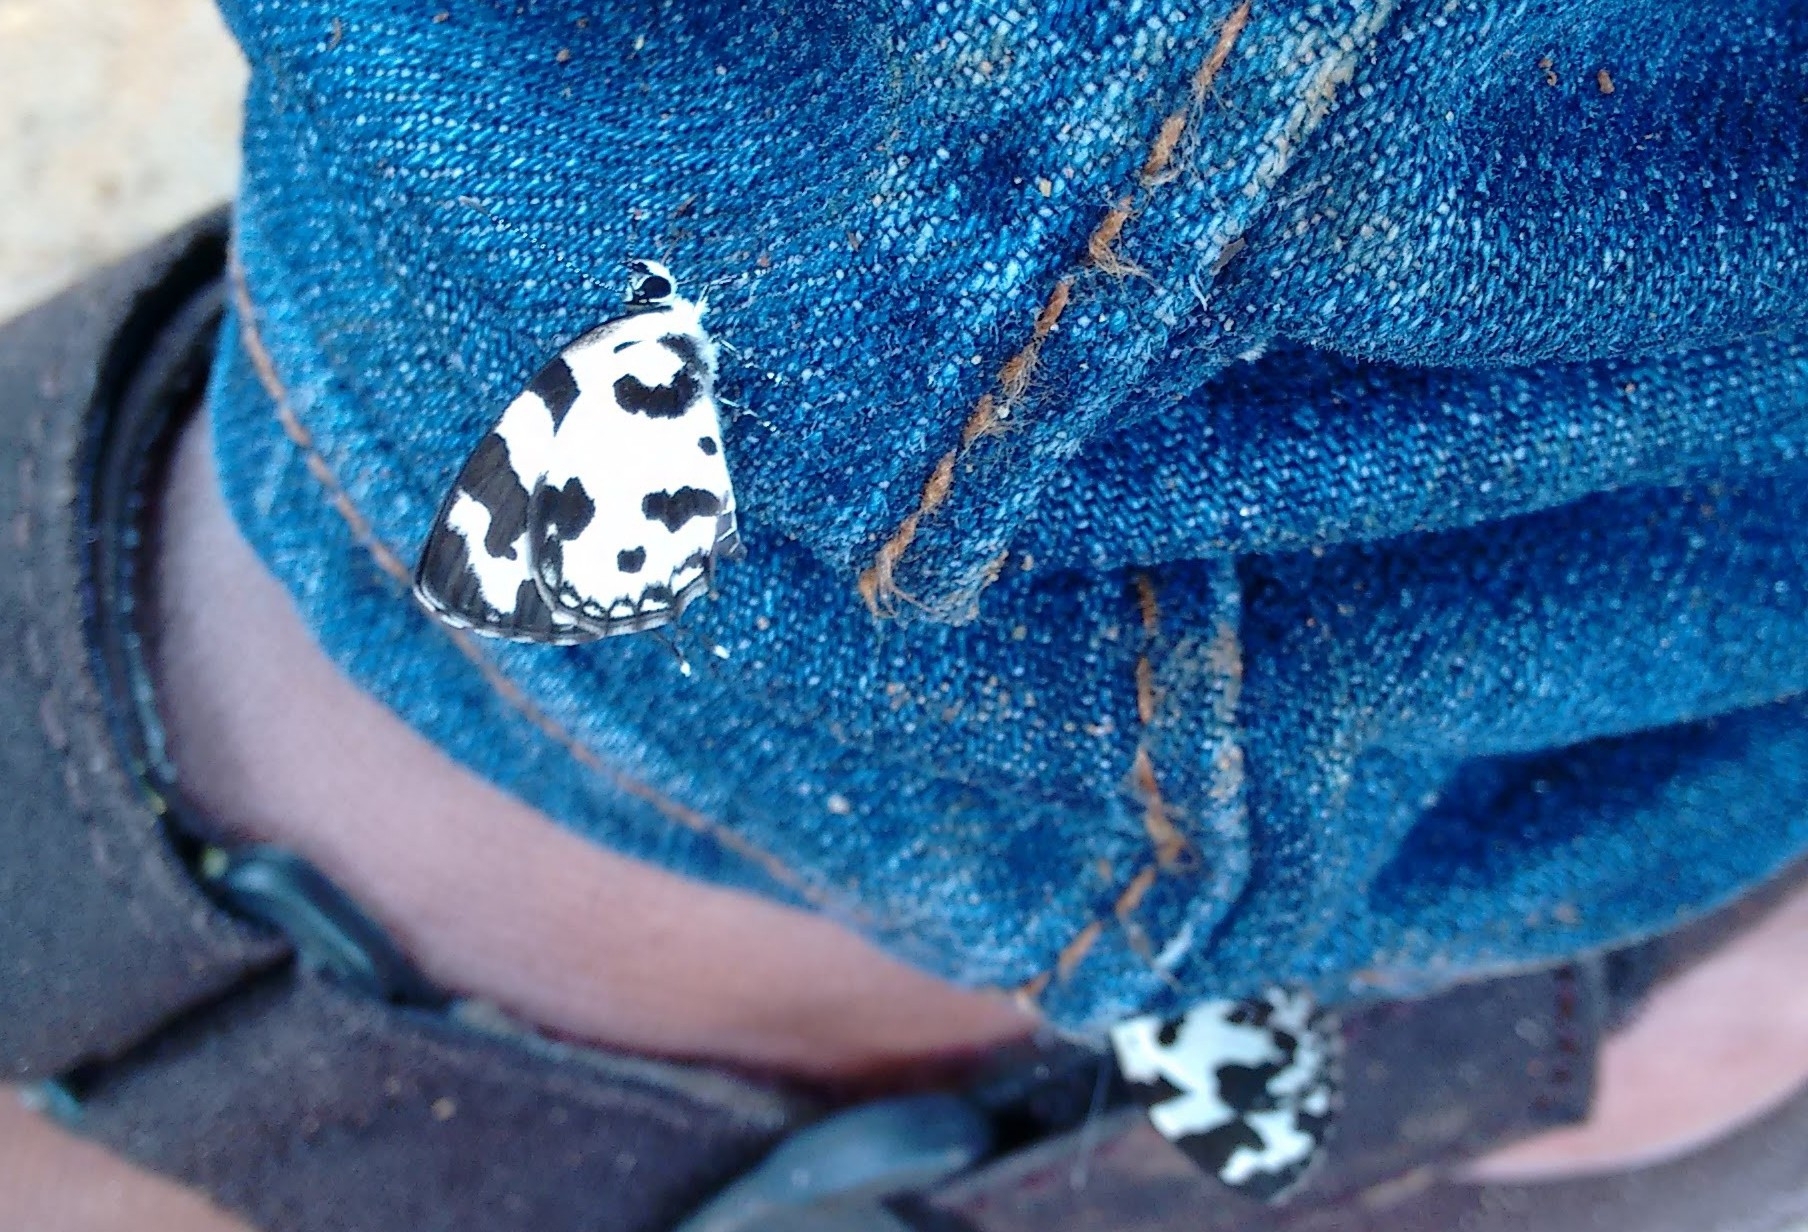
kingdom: Animalia
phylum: Arthropoda
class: Insecta
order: Lepidoptera
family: Lycaenidae
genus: Caleta
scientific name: Caleta decidia
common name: Angled pierrot
